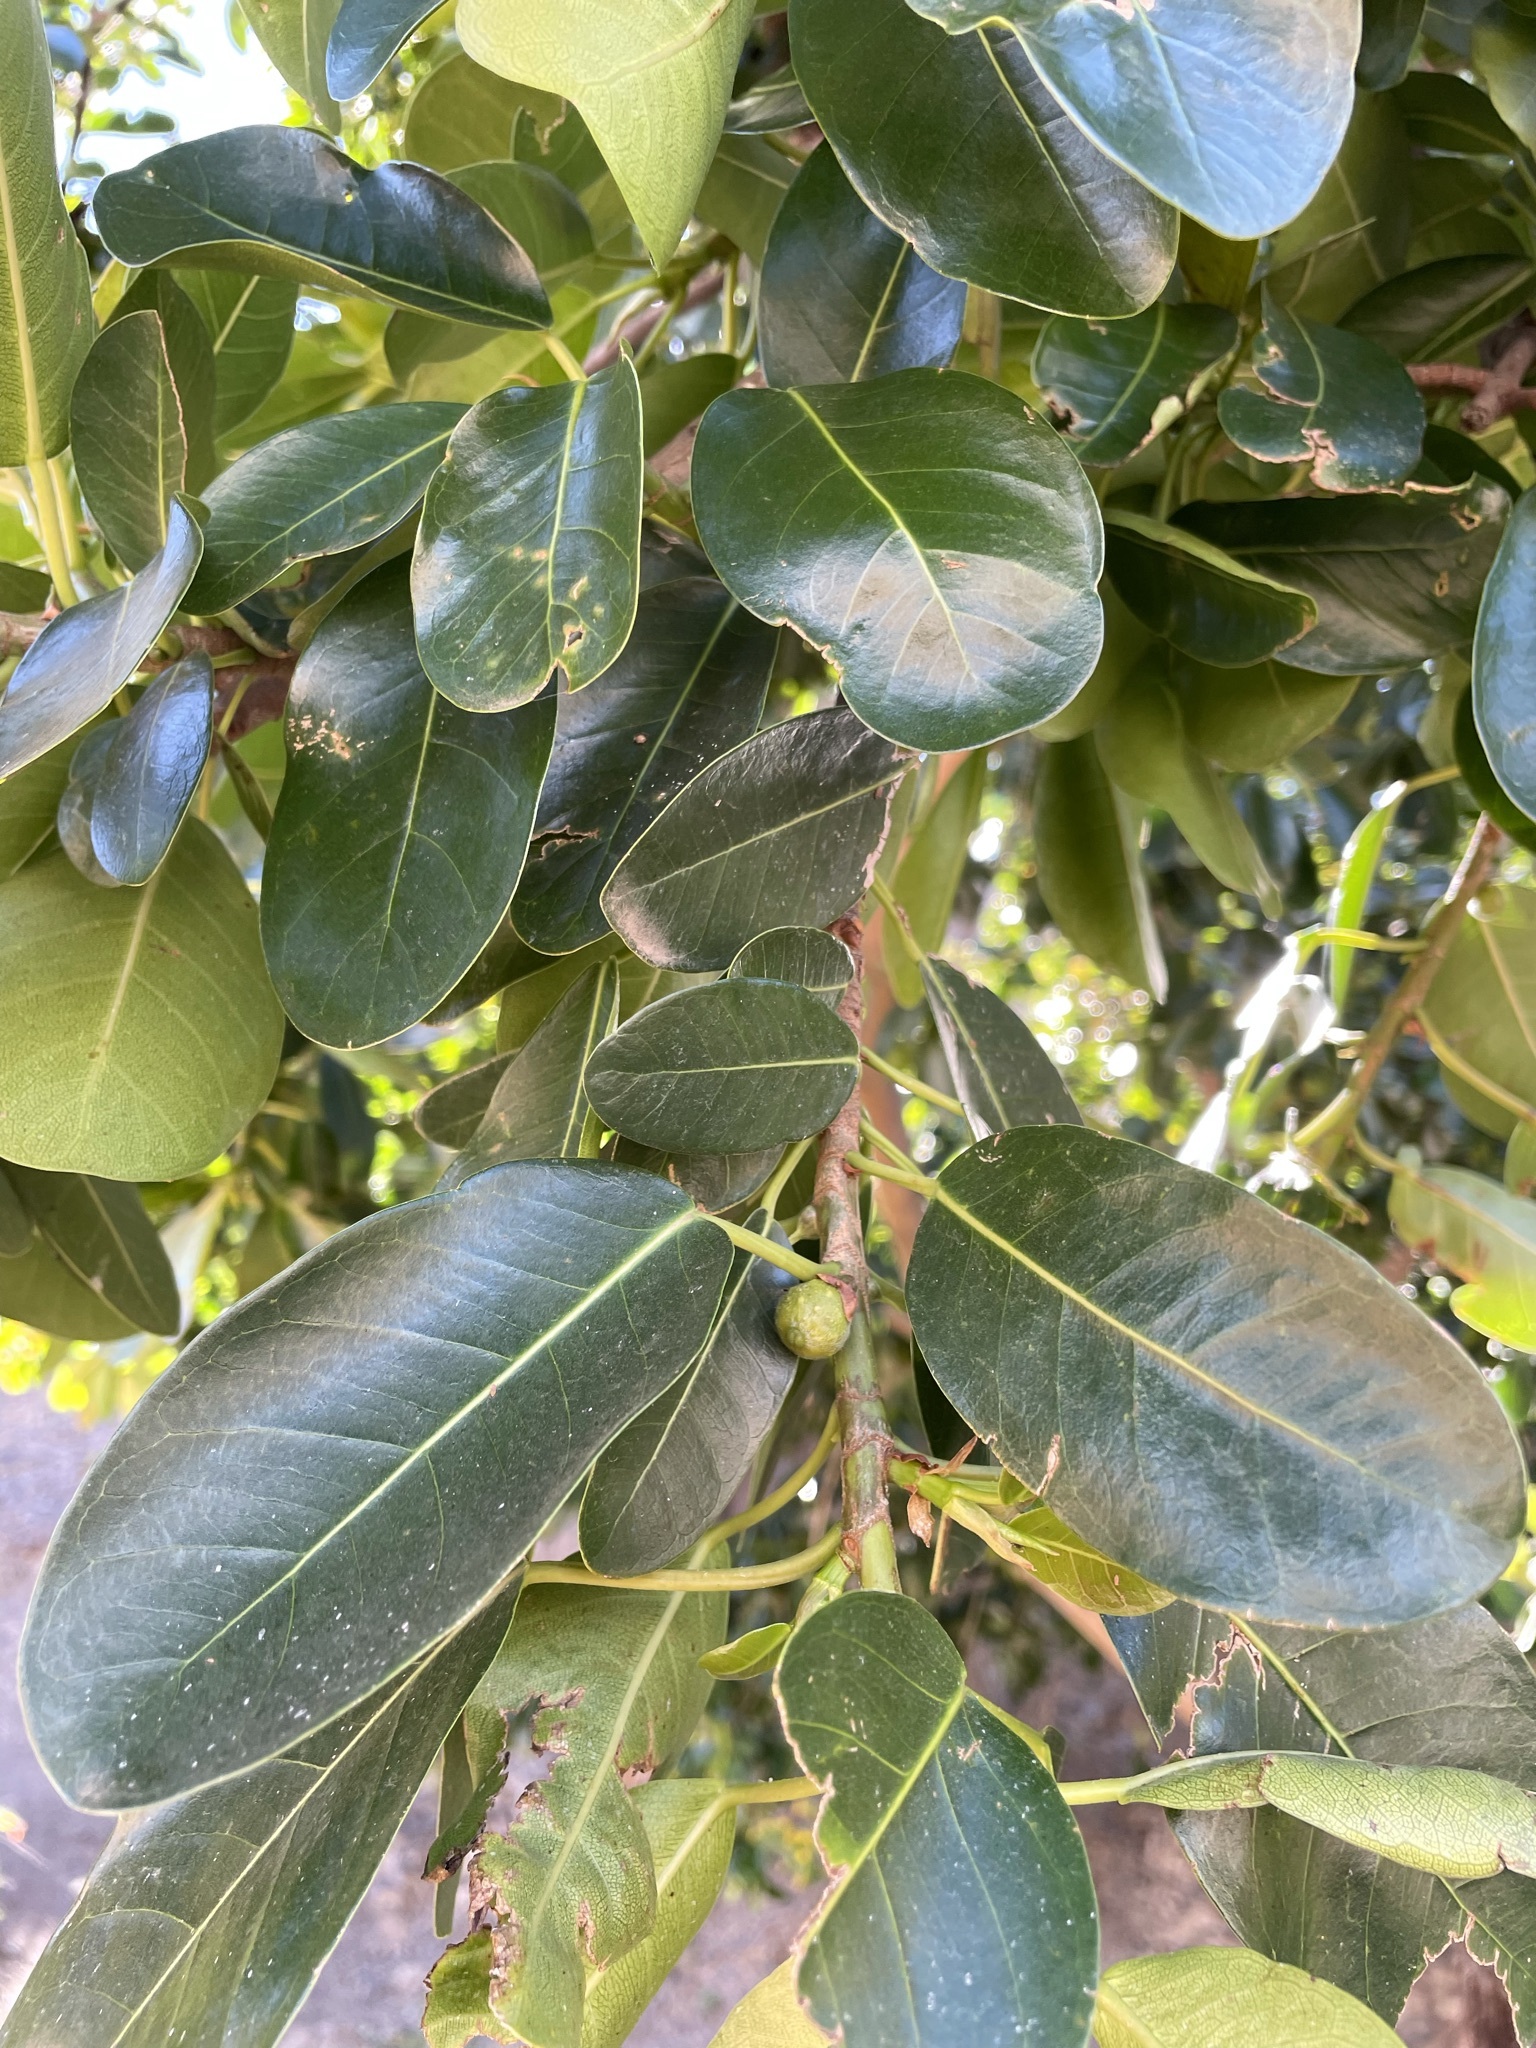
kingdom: Plantae
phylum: Tracheophyta
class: Magnoliopsida
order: Rosales
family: Moraceae
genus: Ficus
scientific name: Ficus thonningii
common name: Fig
